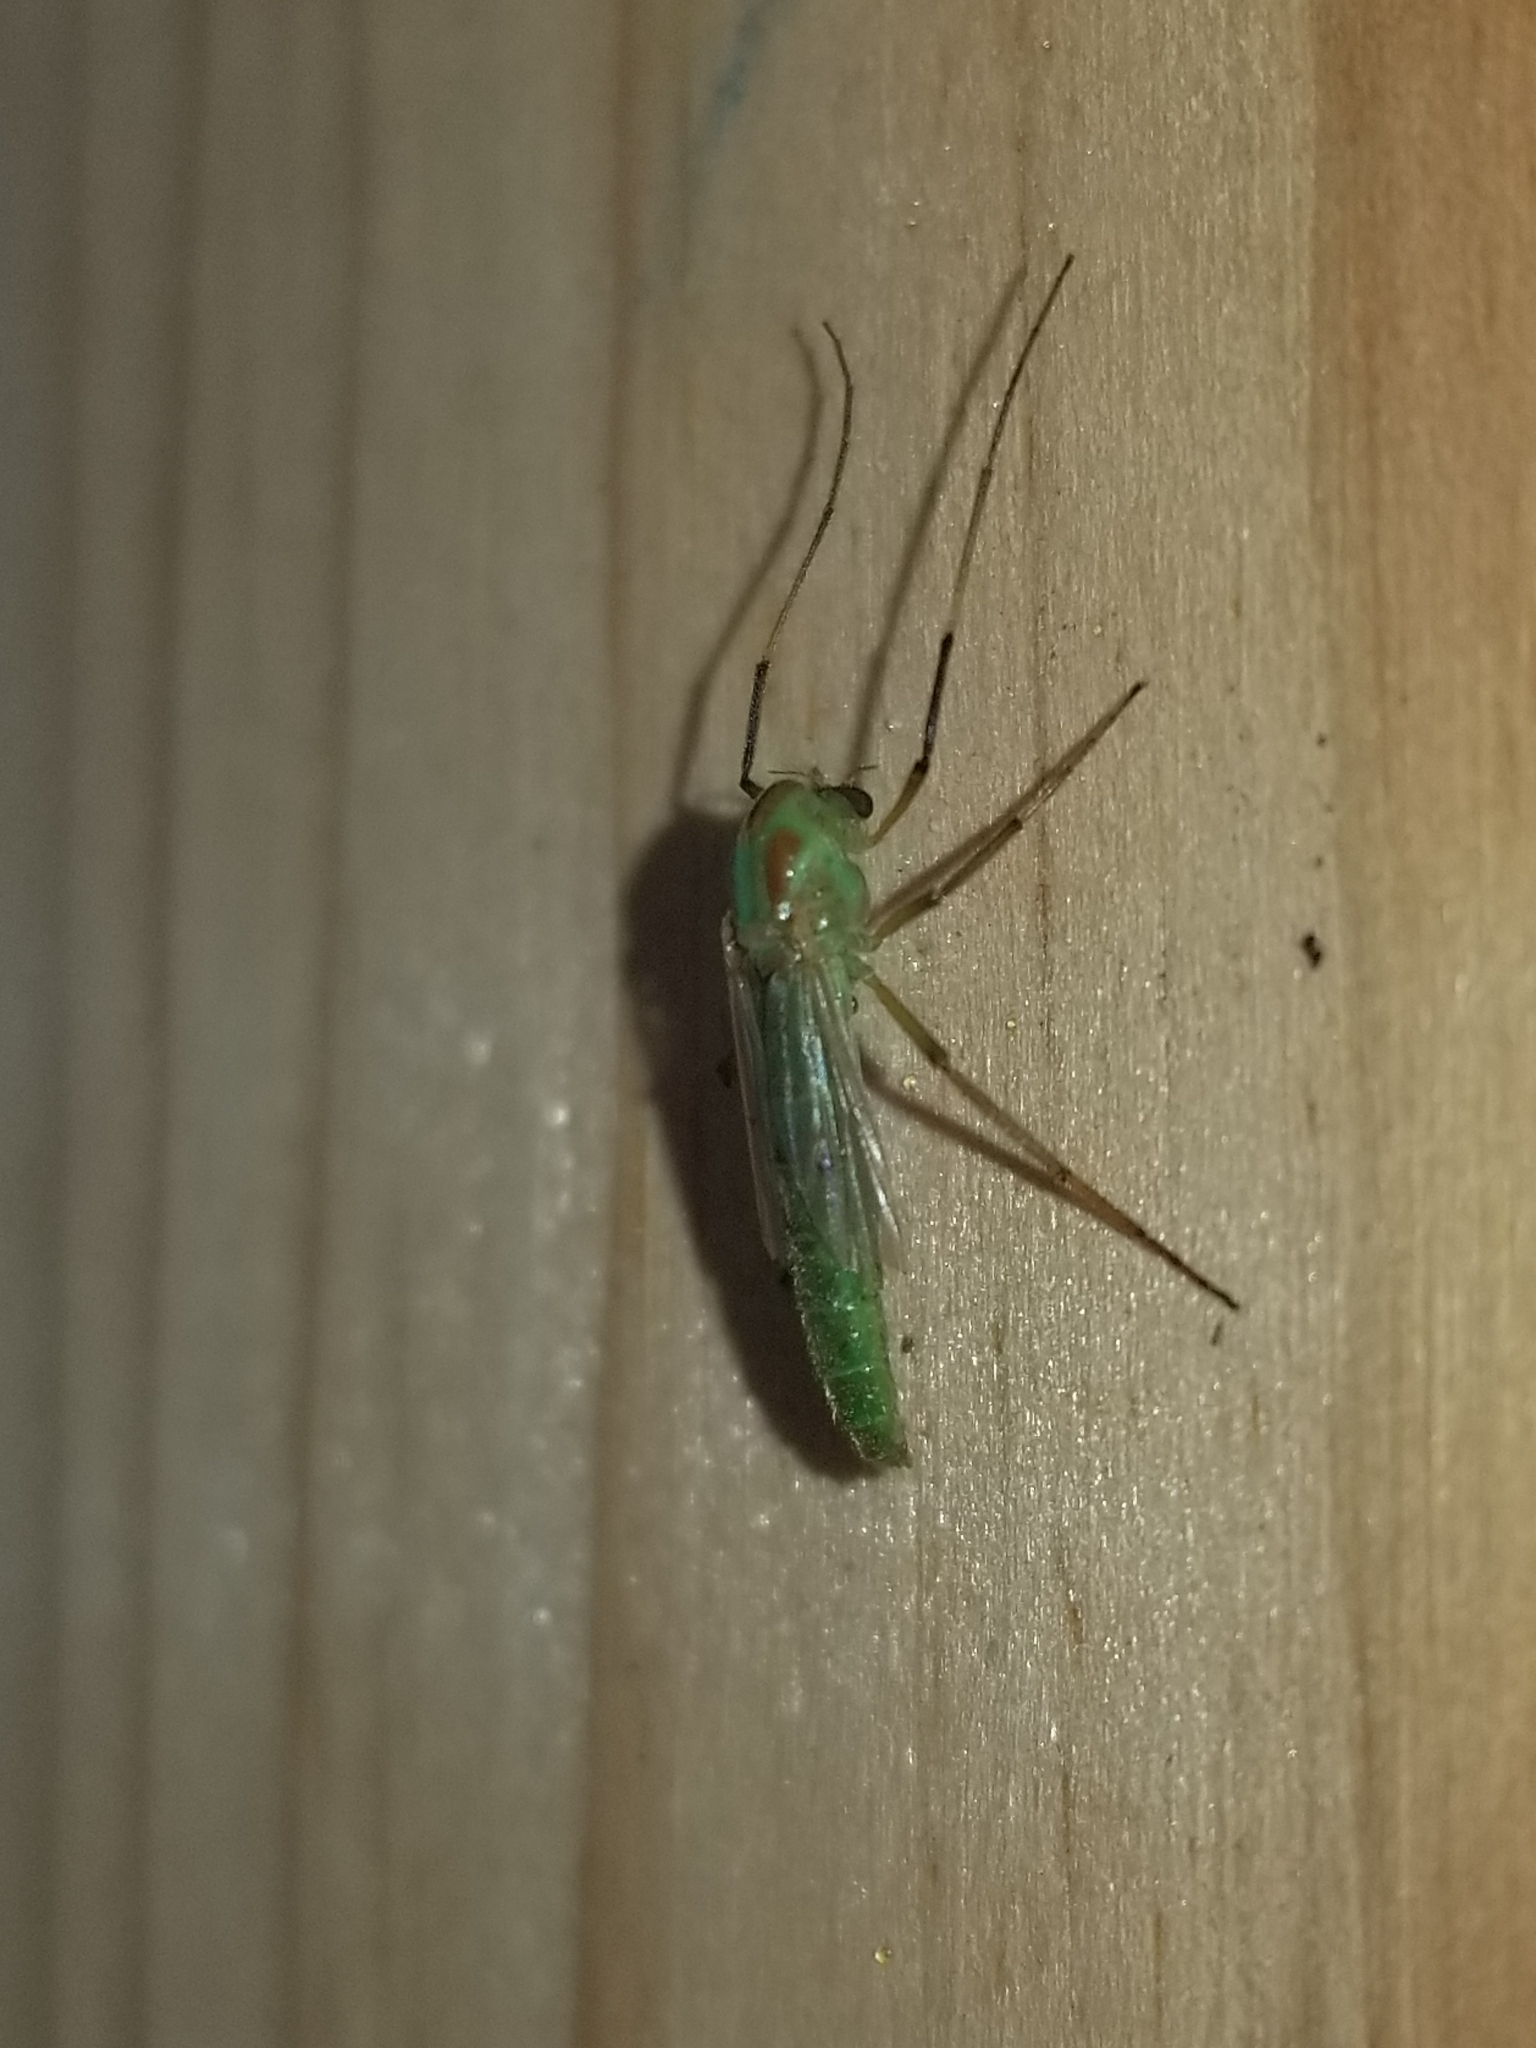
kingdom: Animalia
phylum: Arthropoda
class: Insecta
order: Diptera
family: Chironomidae
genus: Axarus
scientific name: Axarus
